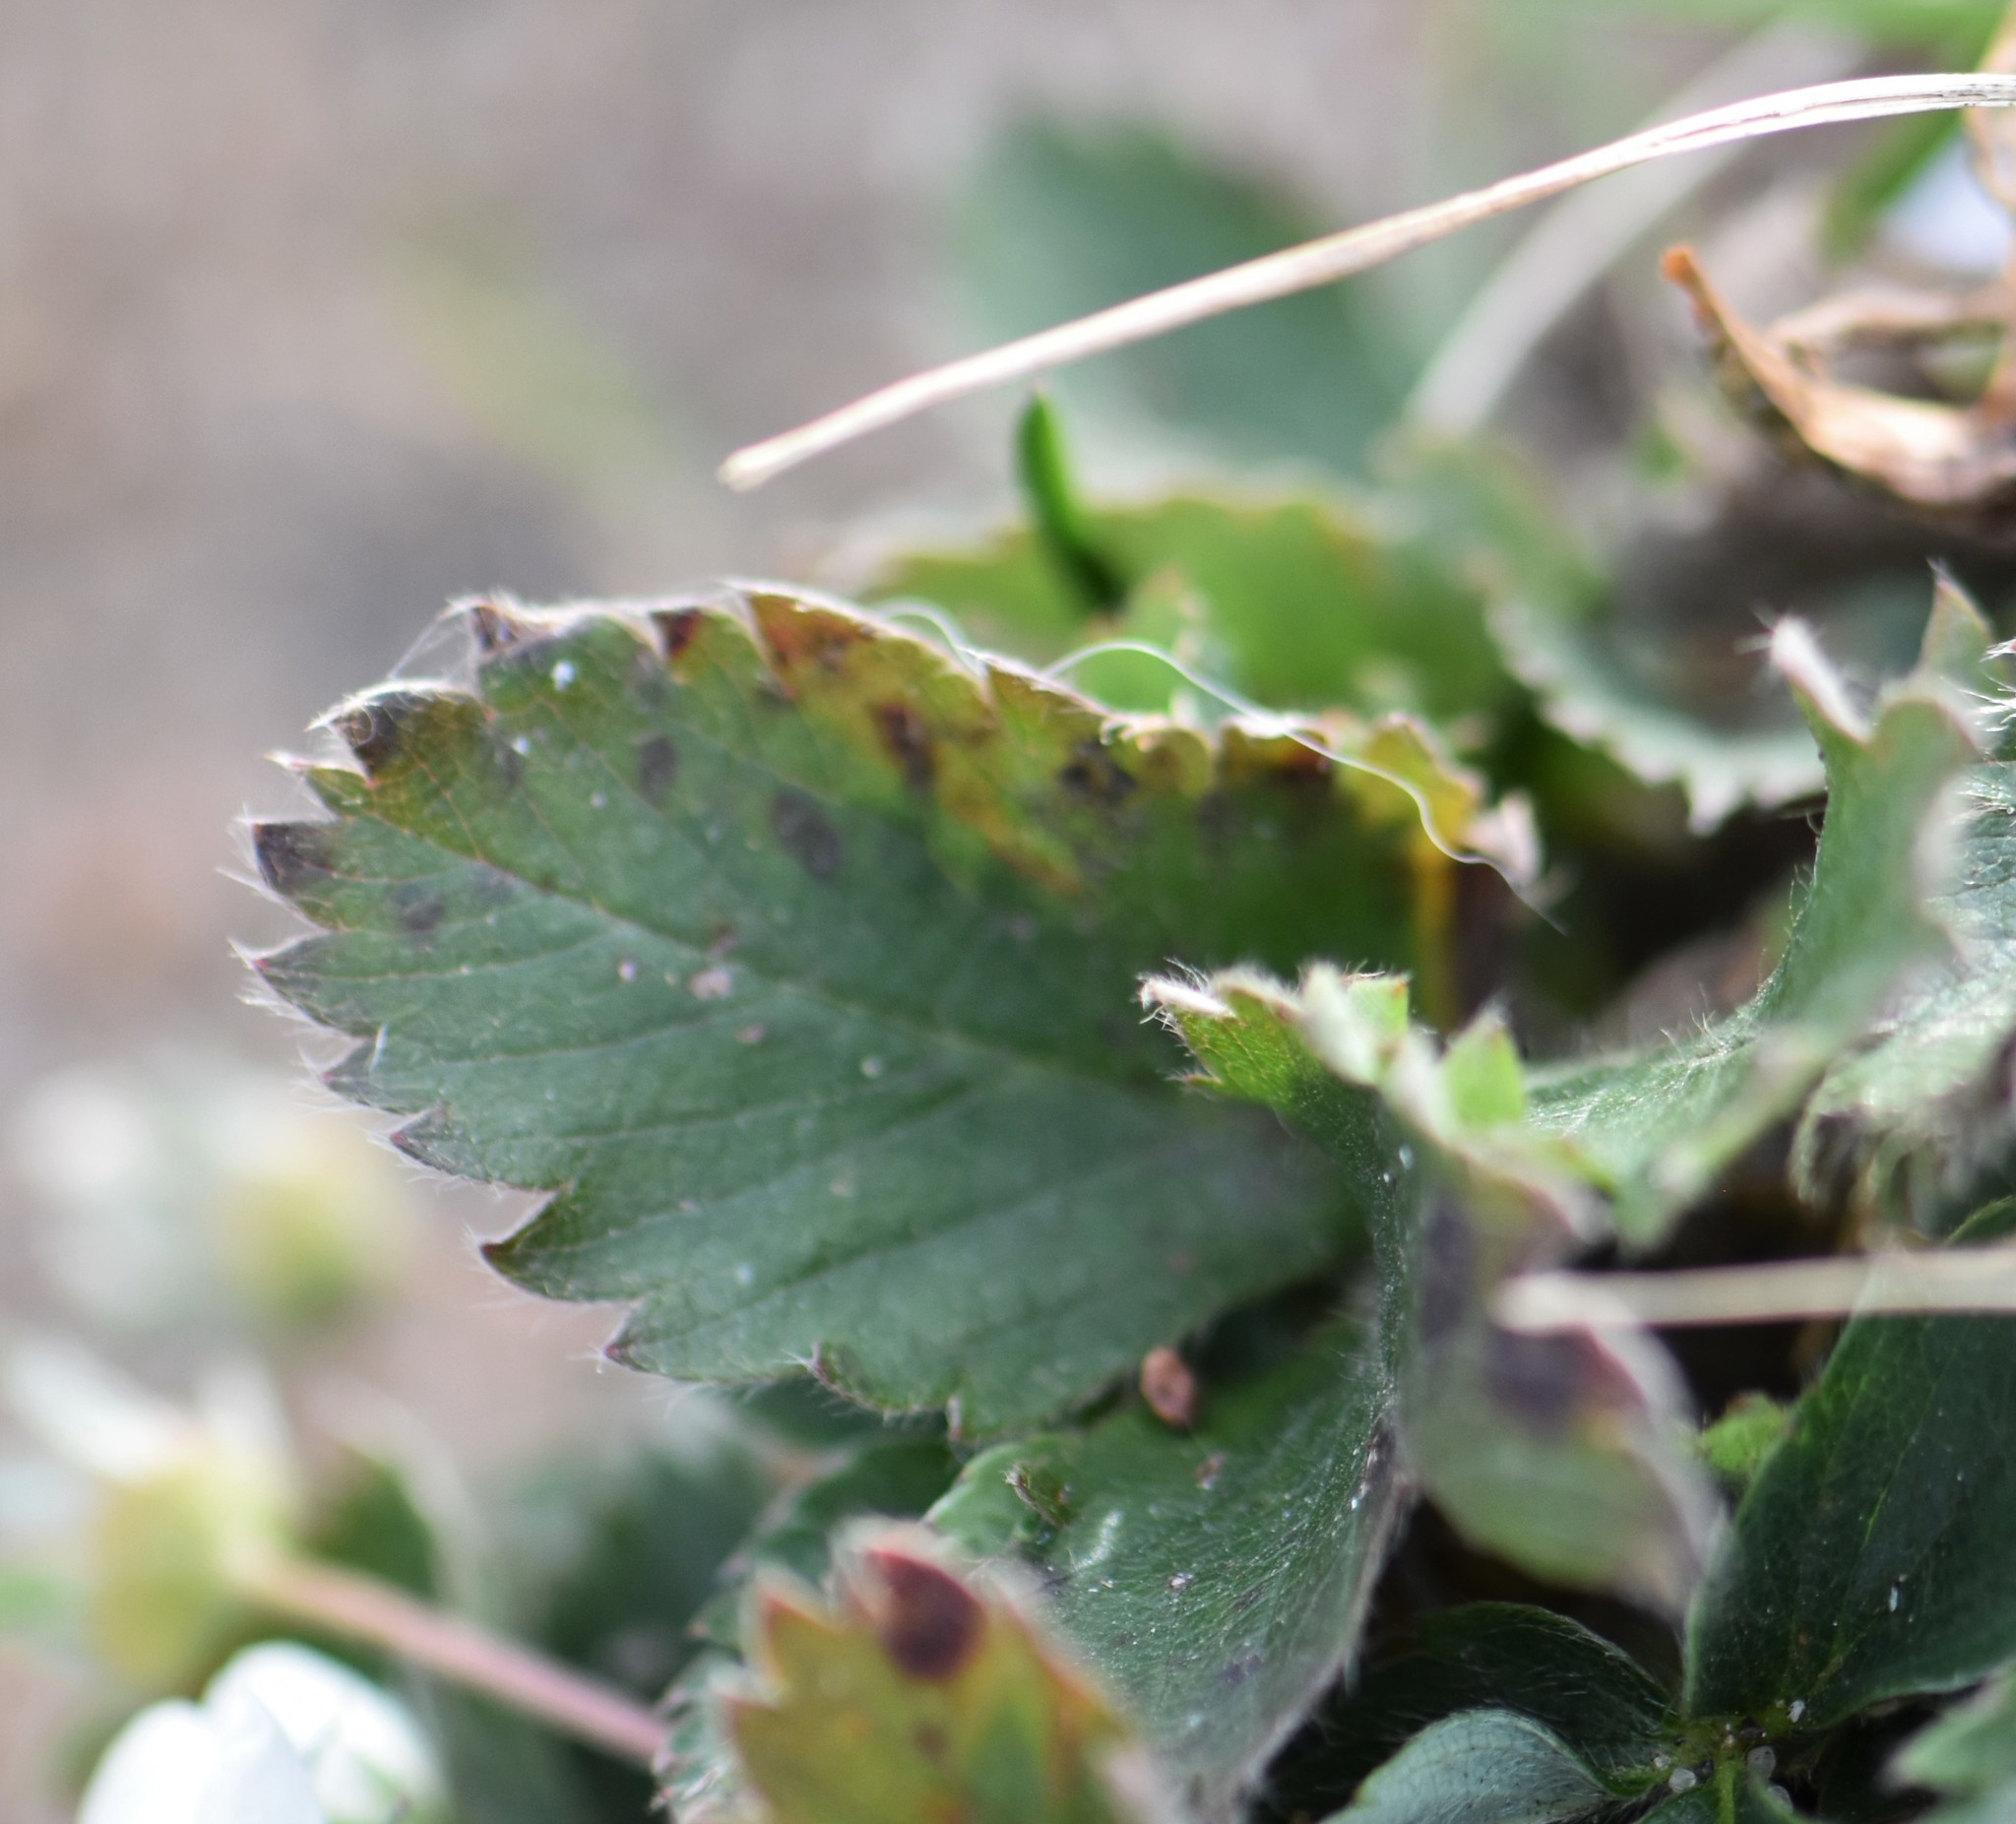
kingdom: Plantae
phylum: Tracheophyta
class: Magnoliopsida
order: Rosales
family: Rosaceae
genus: Fragaria
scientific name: Fragaria virginiana
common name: Thickleaved wild strawberry
